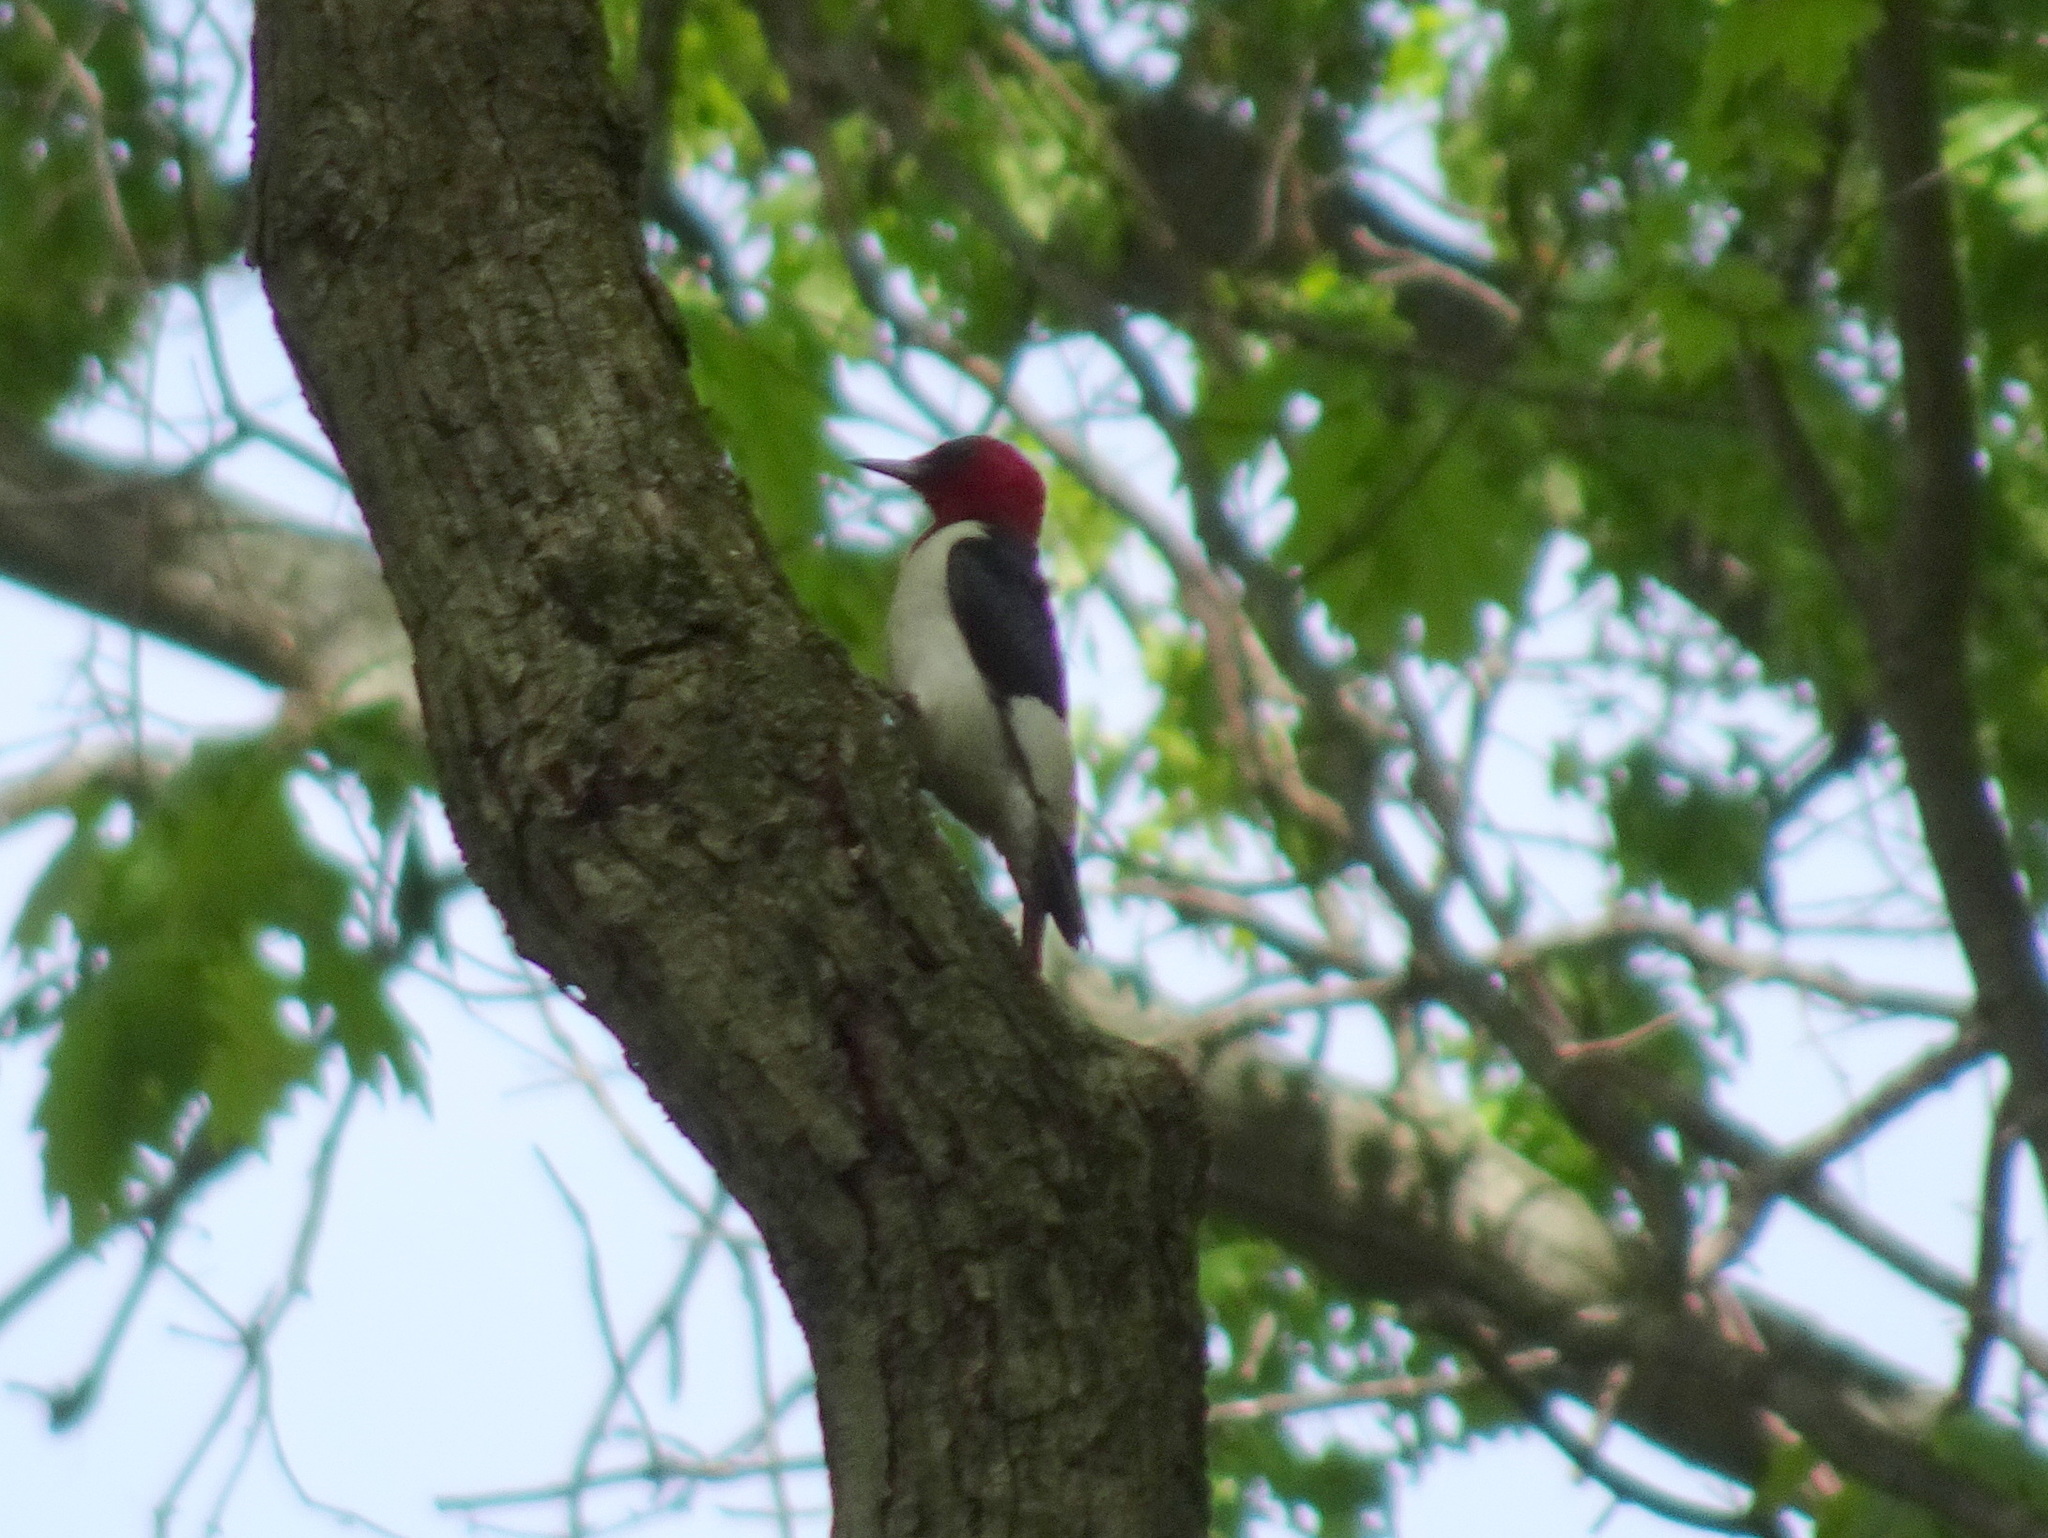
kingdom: Animalia
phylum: Chordata
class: Aves
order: Piciformes
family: Picidae
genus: Melanerpes
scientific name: Melanerpes erythrocephalus
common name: Red-headed woodpecker
